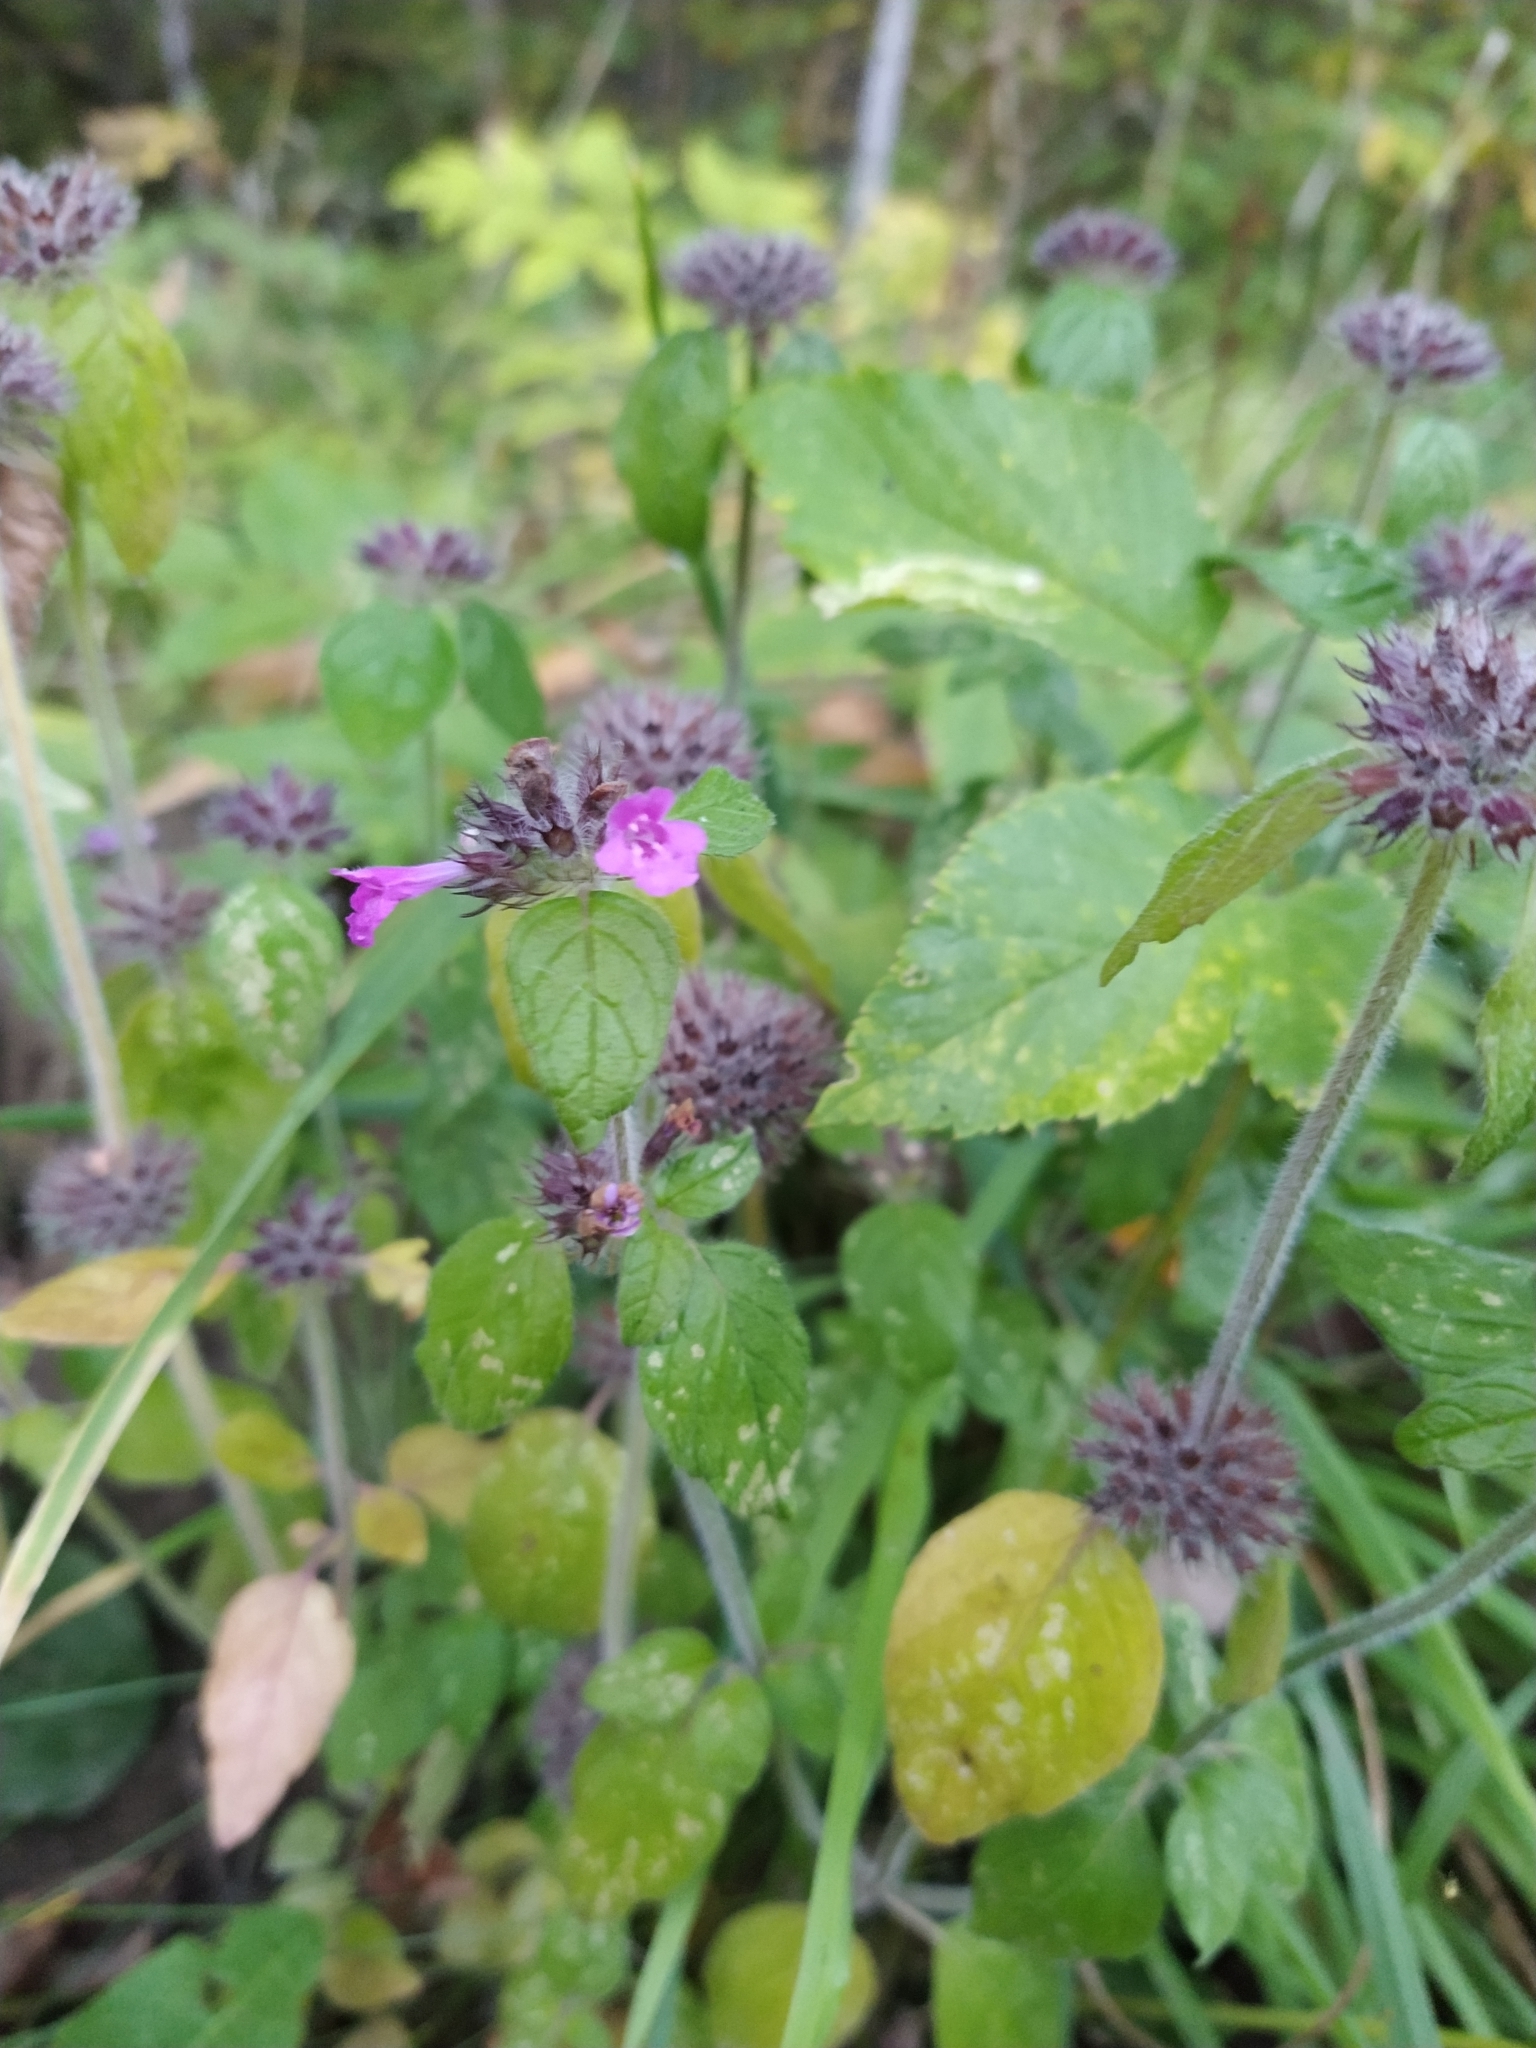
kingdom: Plantae
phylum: Tracheophyta
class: Magnoliopsida
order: Lamiales
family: Lamiaceae
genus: Clinopodium
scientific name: Clinopodium vulgare
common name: Wild basil
